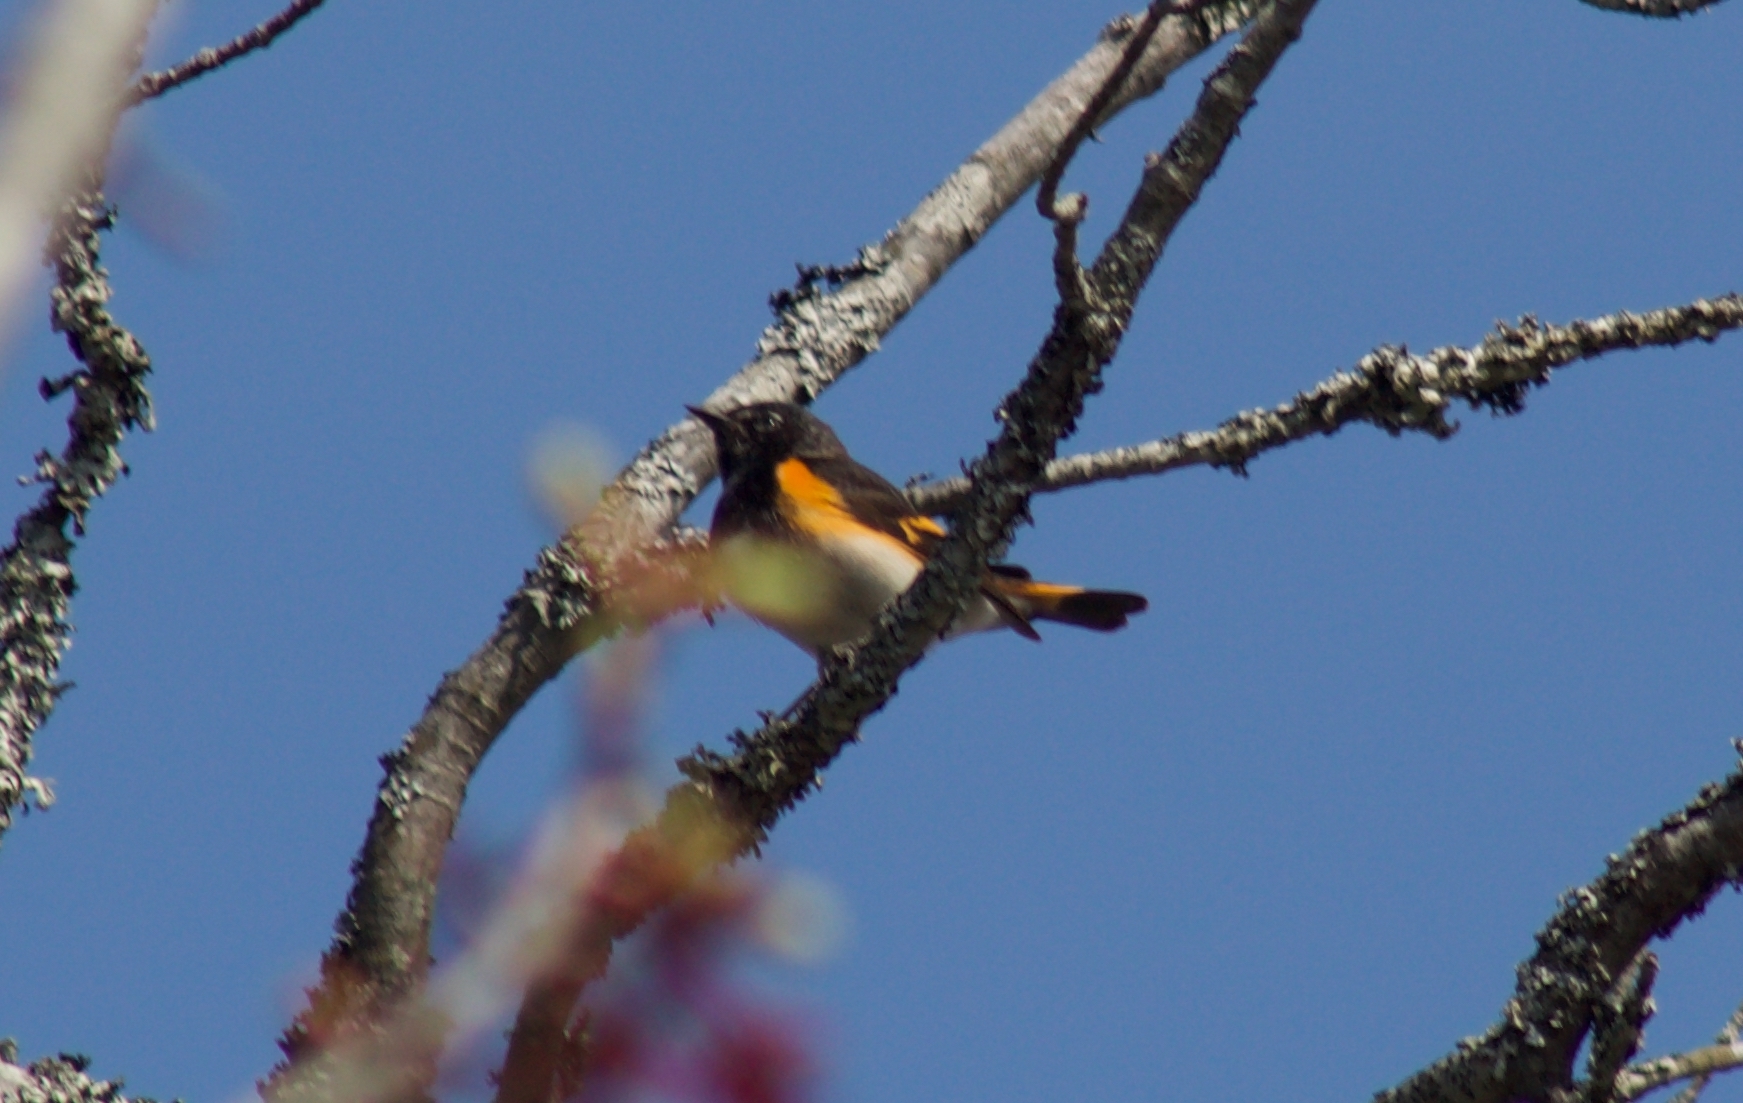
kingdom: Animalia
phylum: Chordata
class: Aves
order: Passeriformes
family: Parulidae
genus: Setophaga
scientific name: Setophaga ruticilla
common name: American redstart
